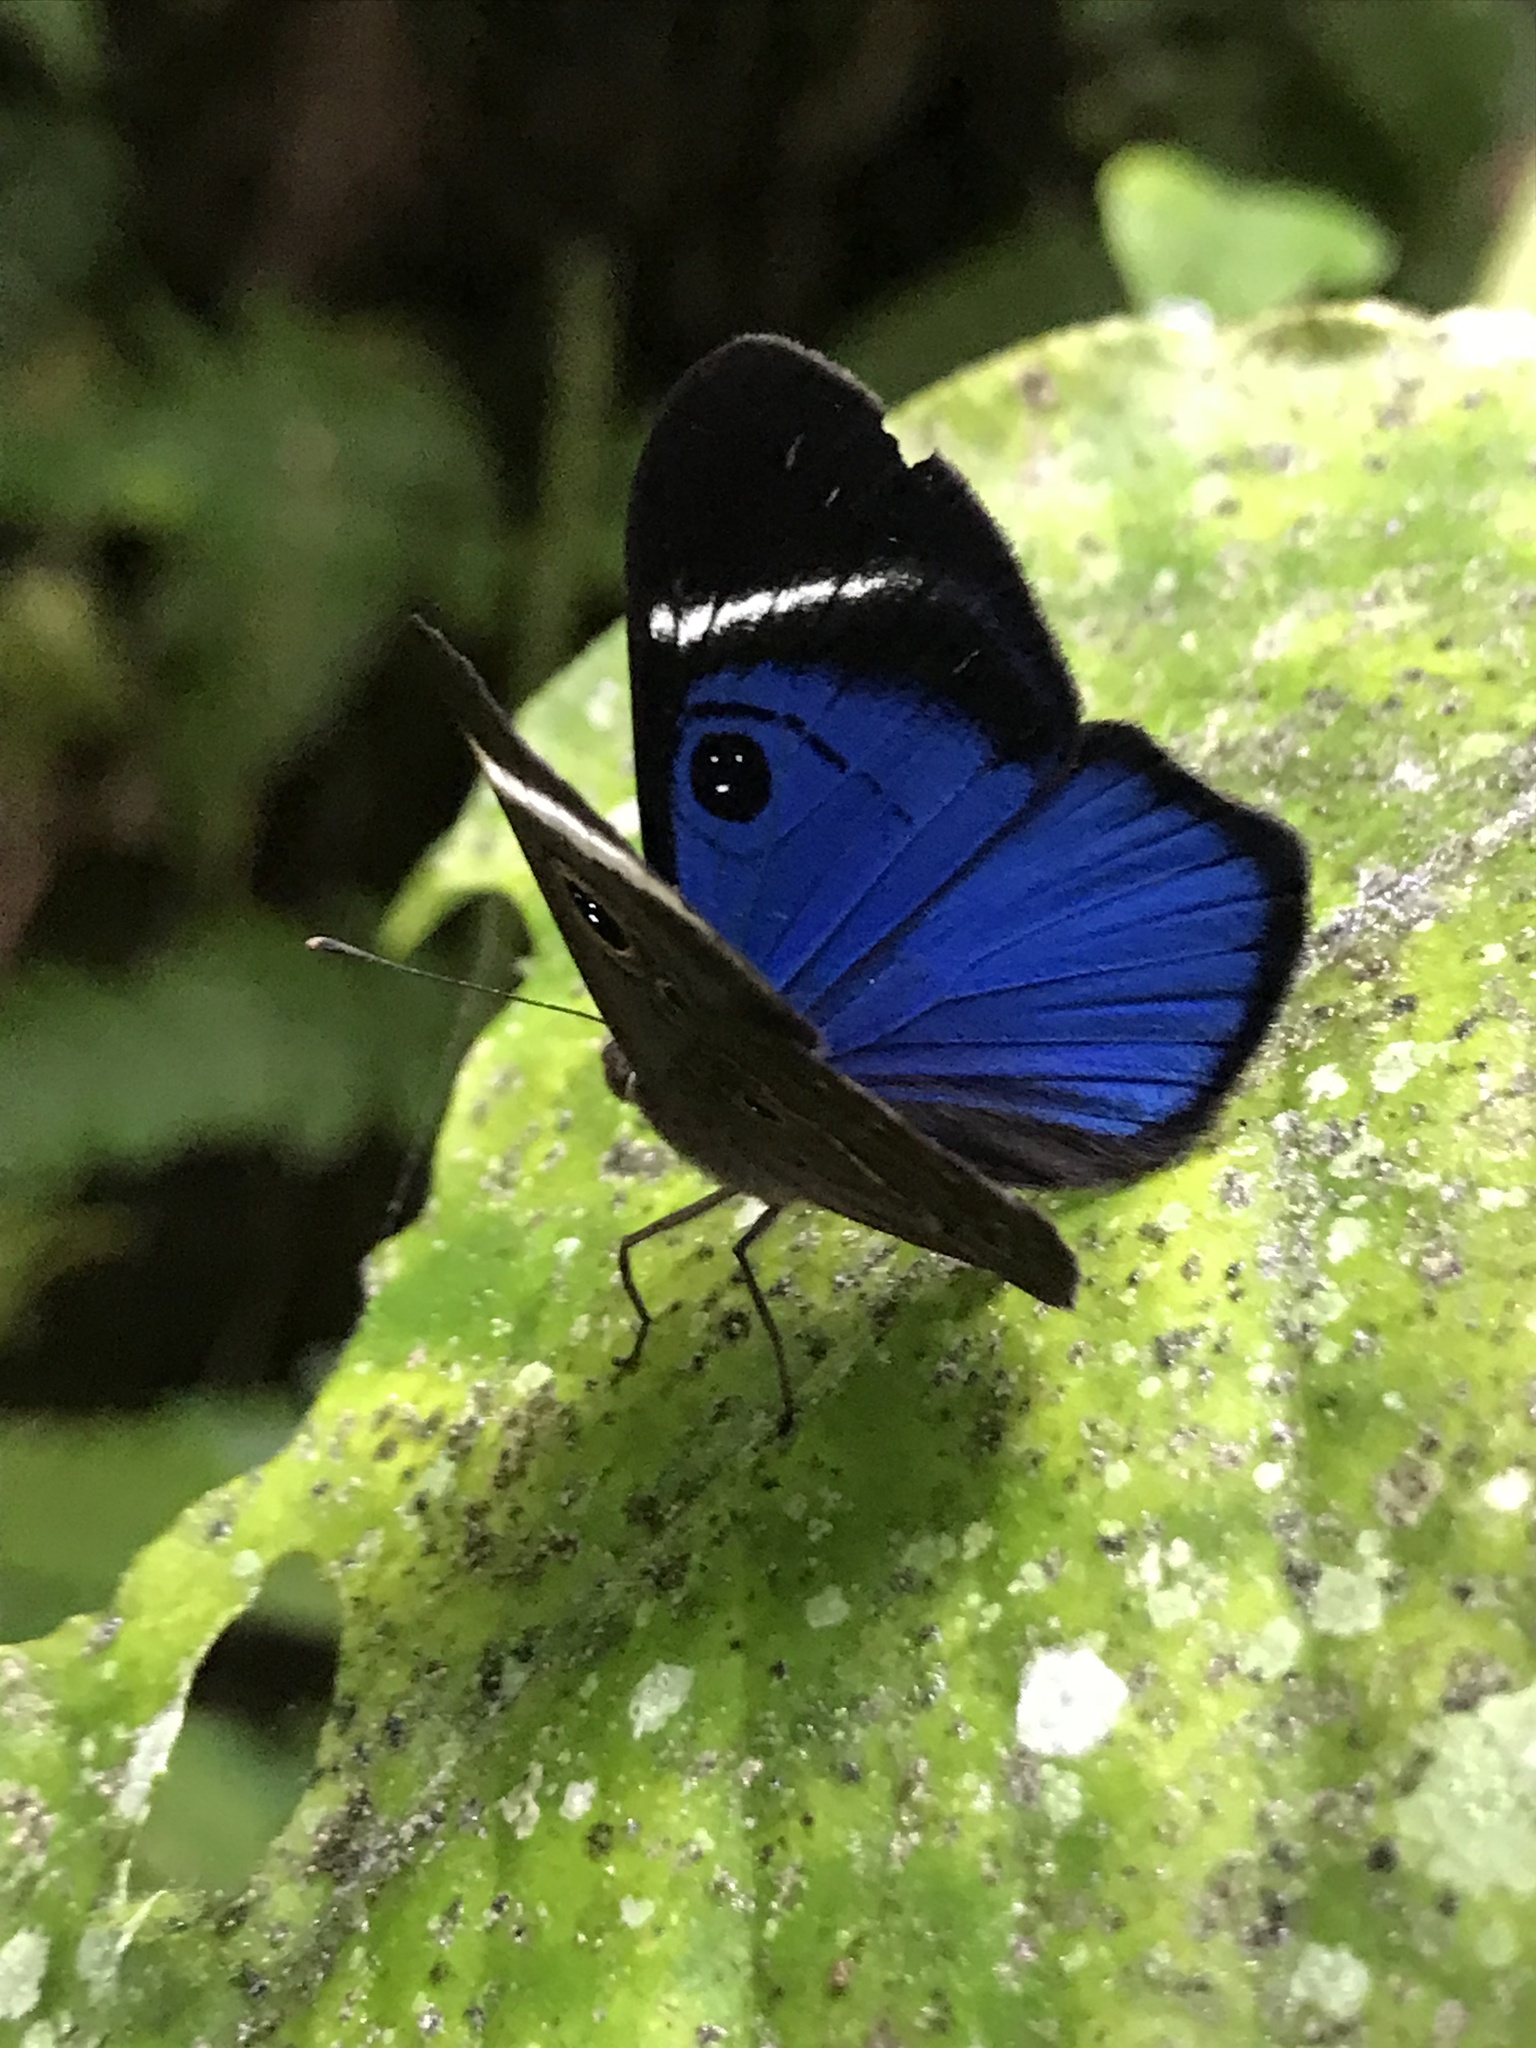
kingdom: Animalia
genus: Mesosemia
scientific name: Mesosemia mevania
